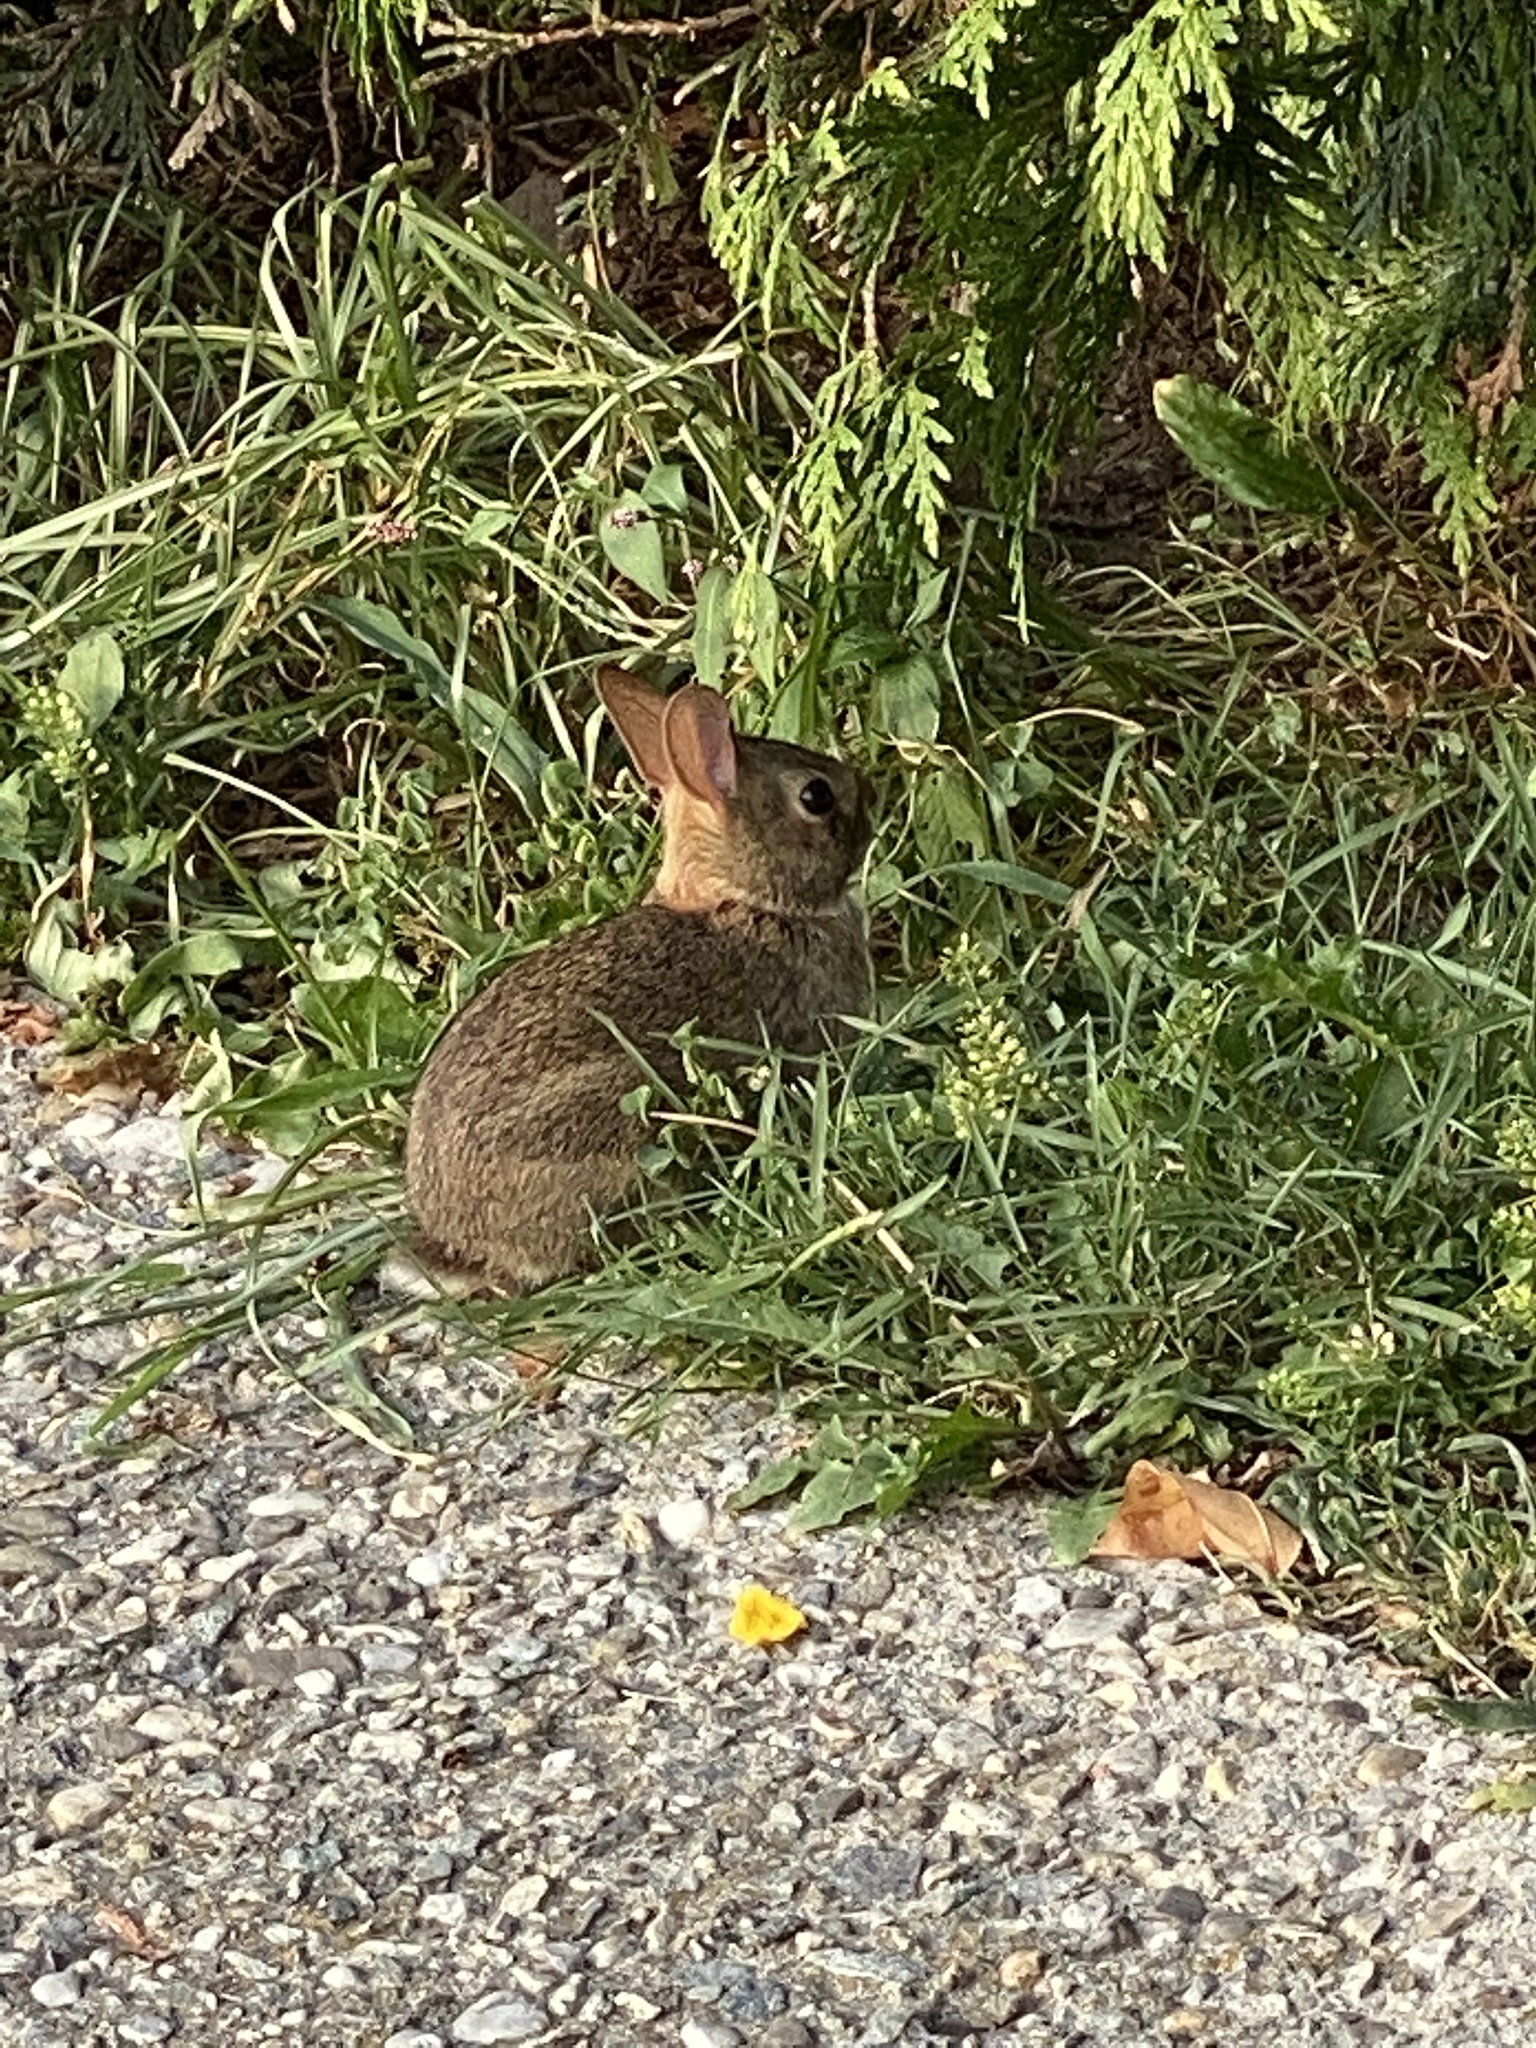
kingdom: Animalia
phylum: Chordata
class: Mammalia
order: Lagomorpha
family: Leporidae
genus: Sylvilagus
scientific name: Sylvilagus floridanus
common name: Eastern cottontail
